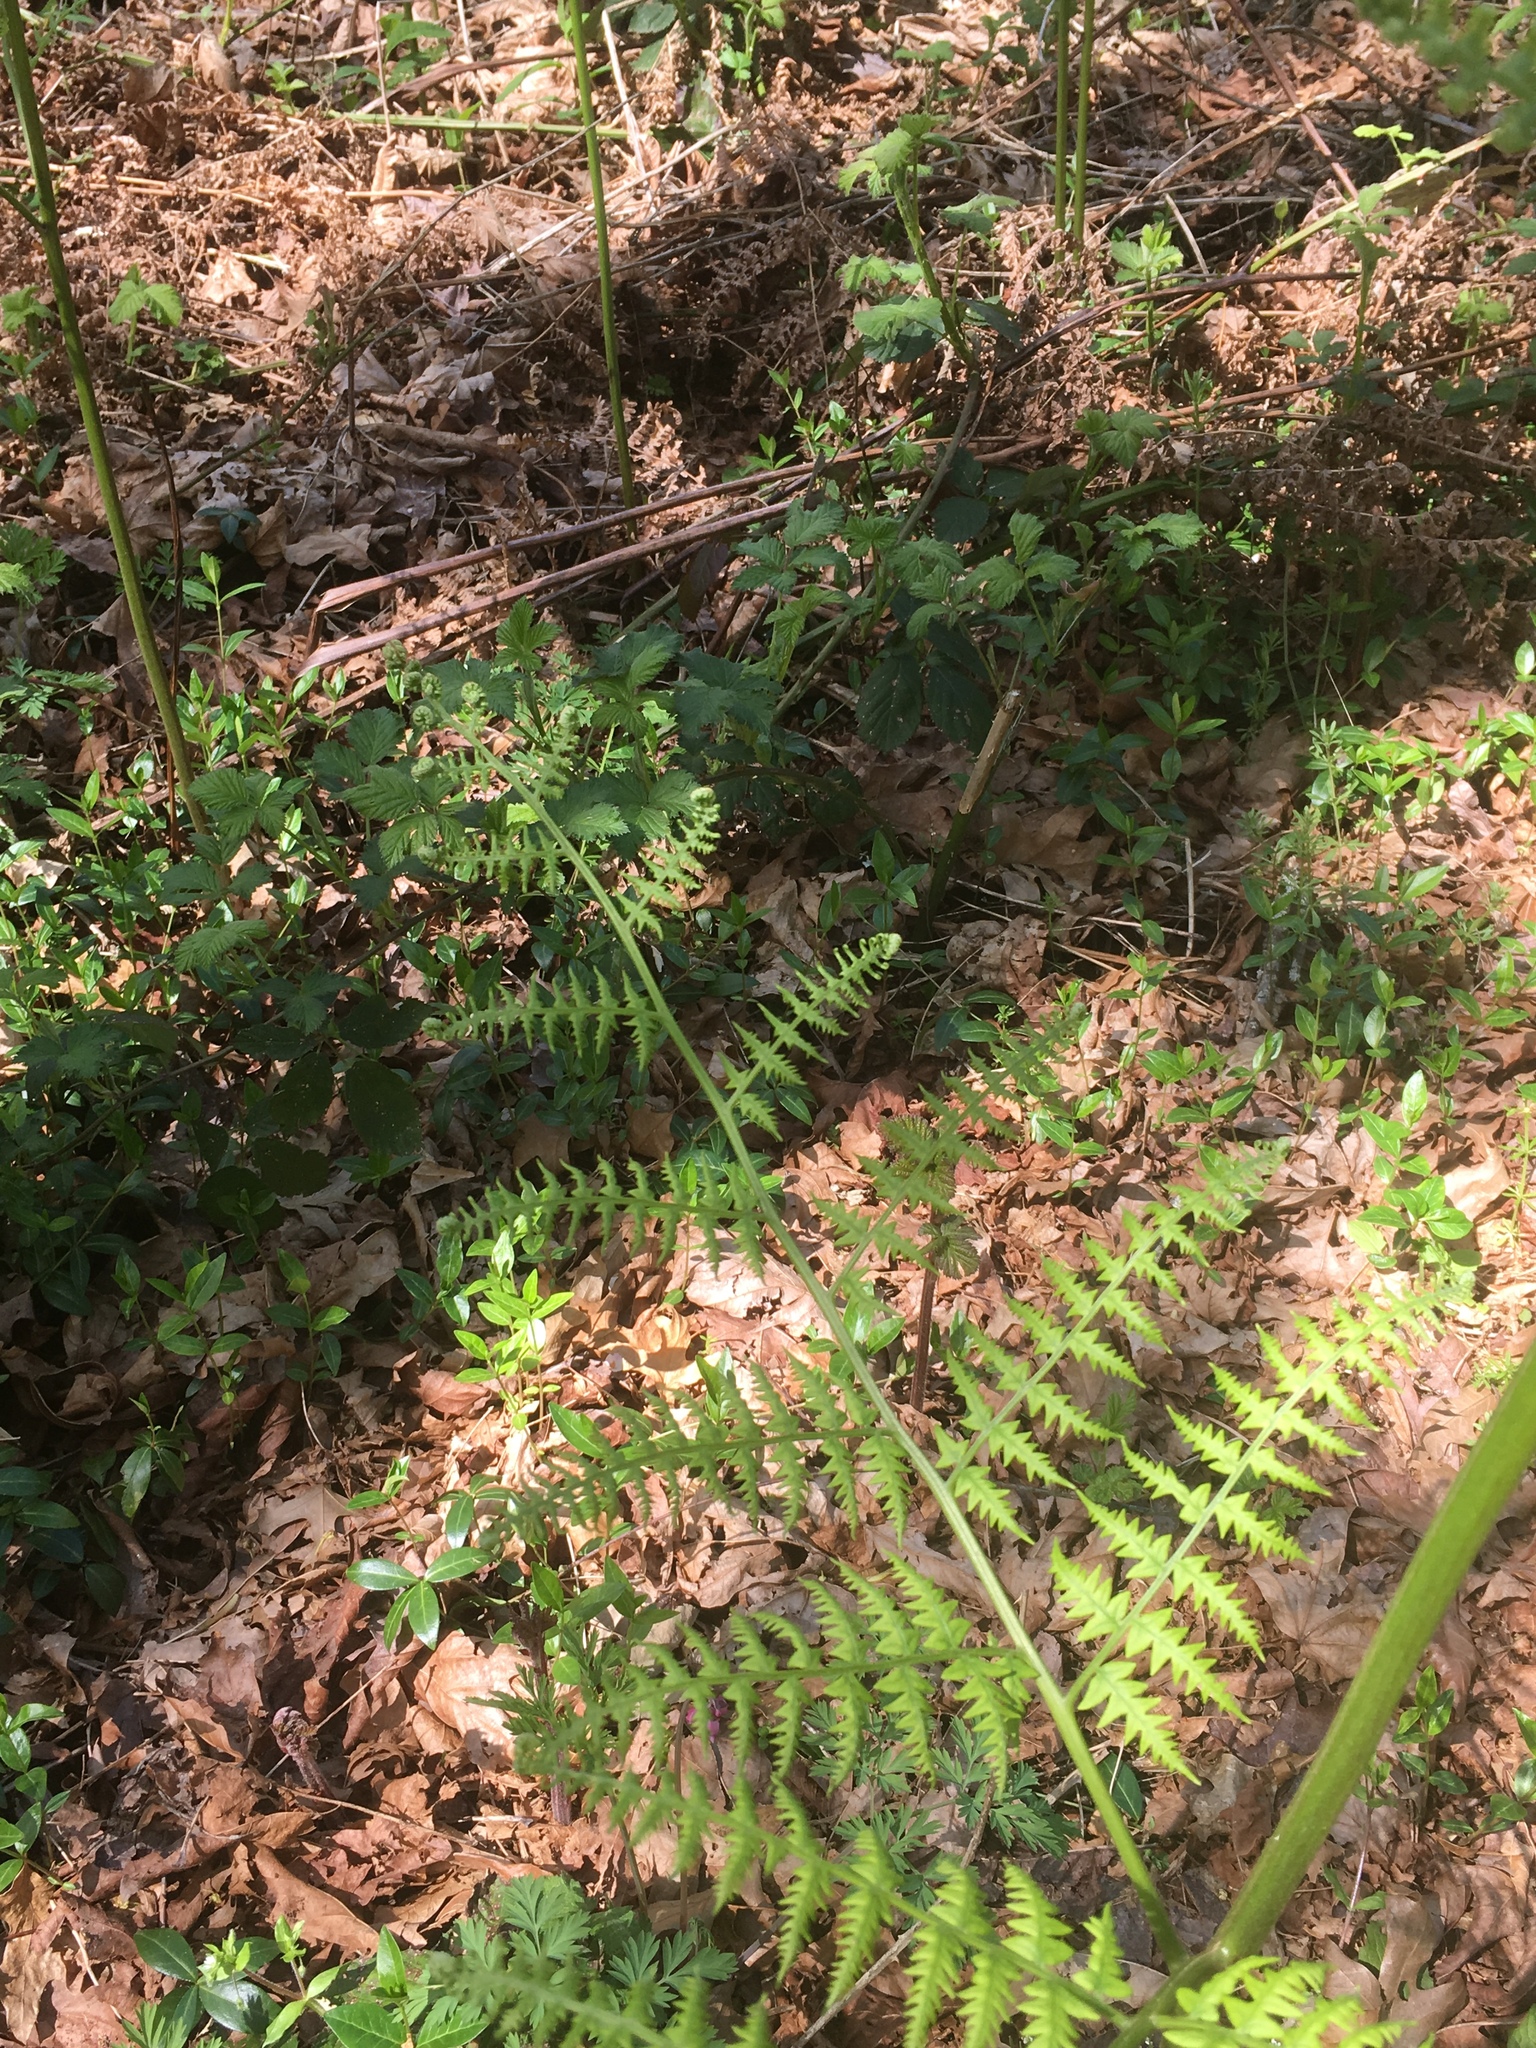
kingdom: Plantae
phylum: Tracheophyta
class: Polypodiopsida
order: Polypodiales
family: Dennstaedtiaceae
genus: Pteridium
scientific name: Pteridium aquilinum
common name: Bracken
